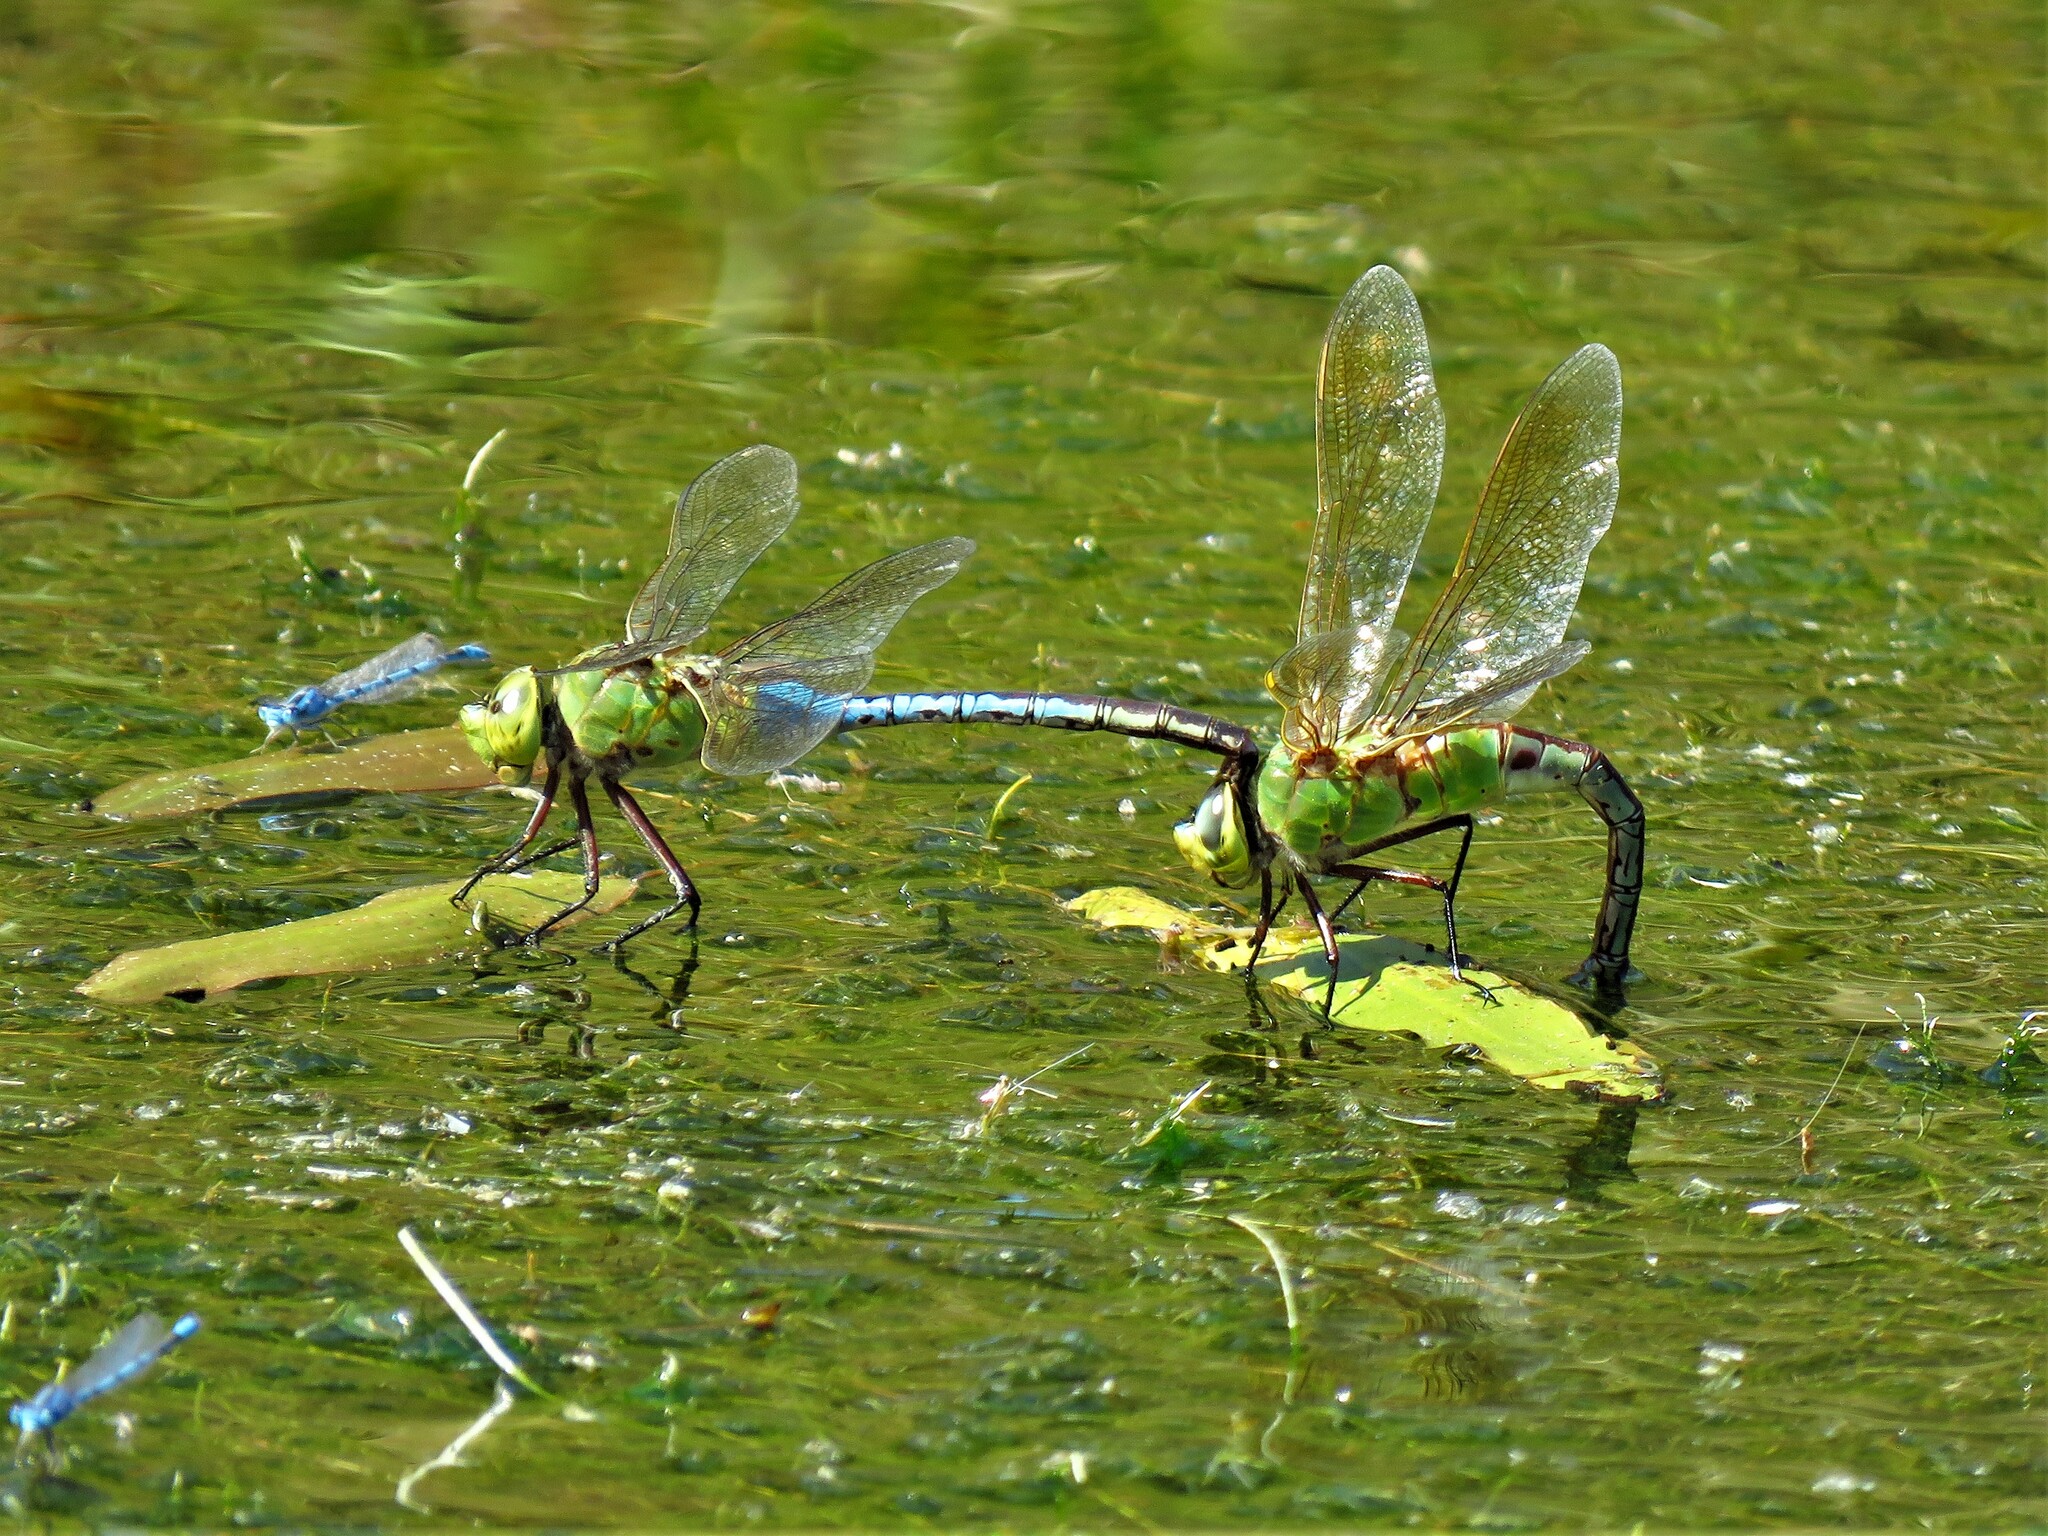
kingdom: Animalia
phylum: Arthropoda
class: Insecta
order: Odonata
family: Aeshnidae
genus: Anax
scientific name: Anax junius
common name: Common green darner
